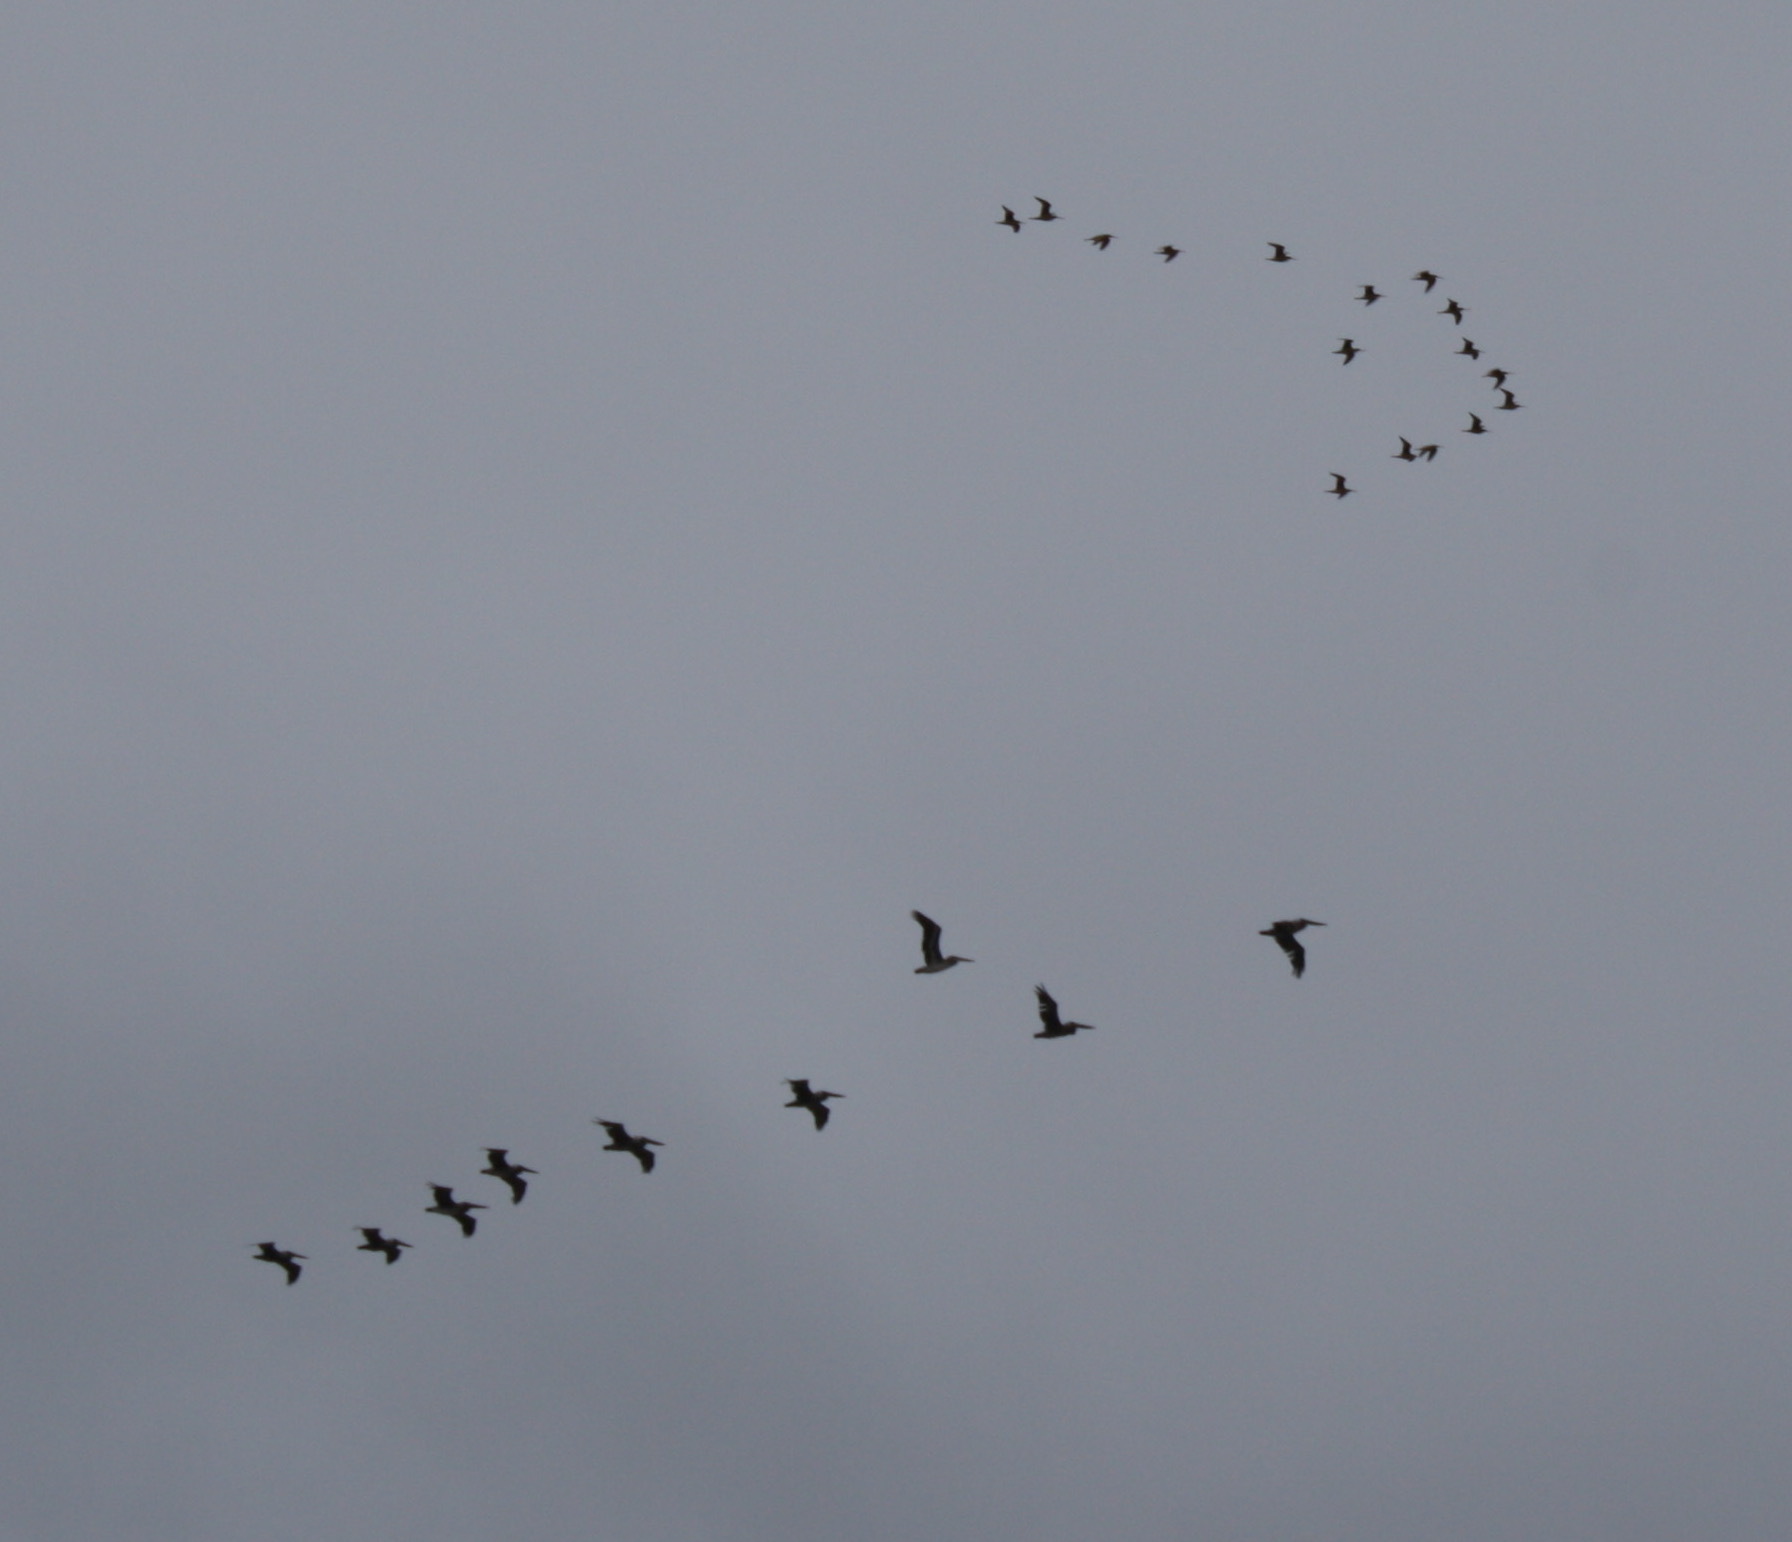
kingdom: Animalia
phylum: Chordata
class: Aves
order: Pelecaniformes
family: Pelecanidae
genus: Pelecanus
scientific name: Pelecanus occidentalis
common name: Brown pelican
